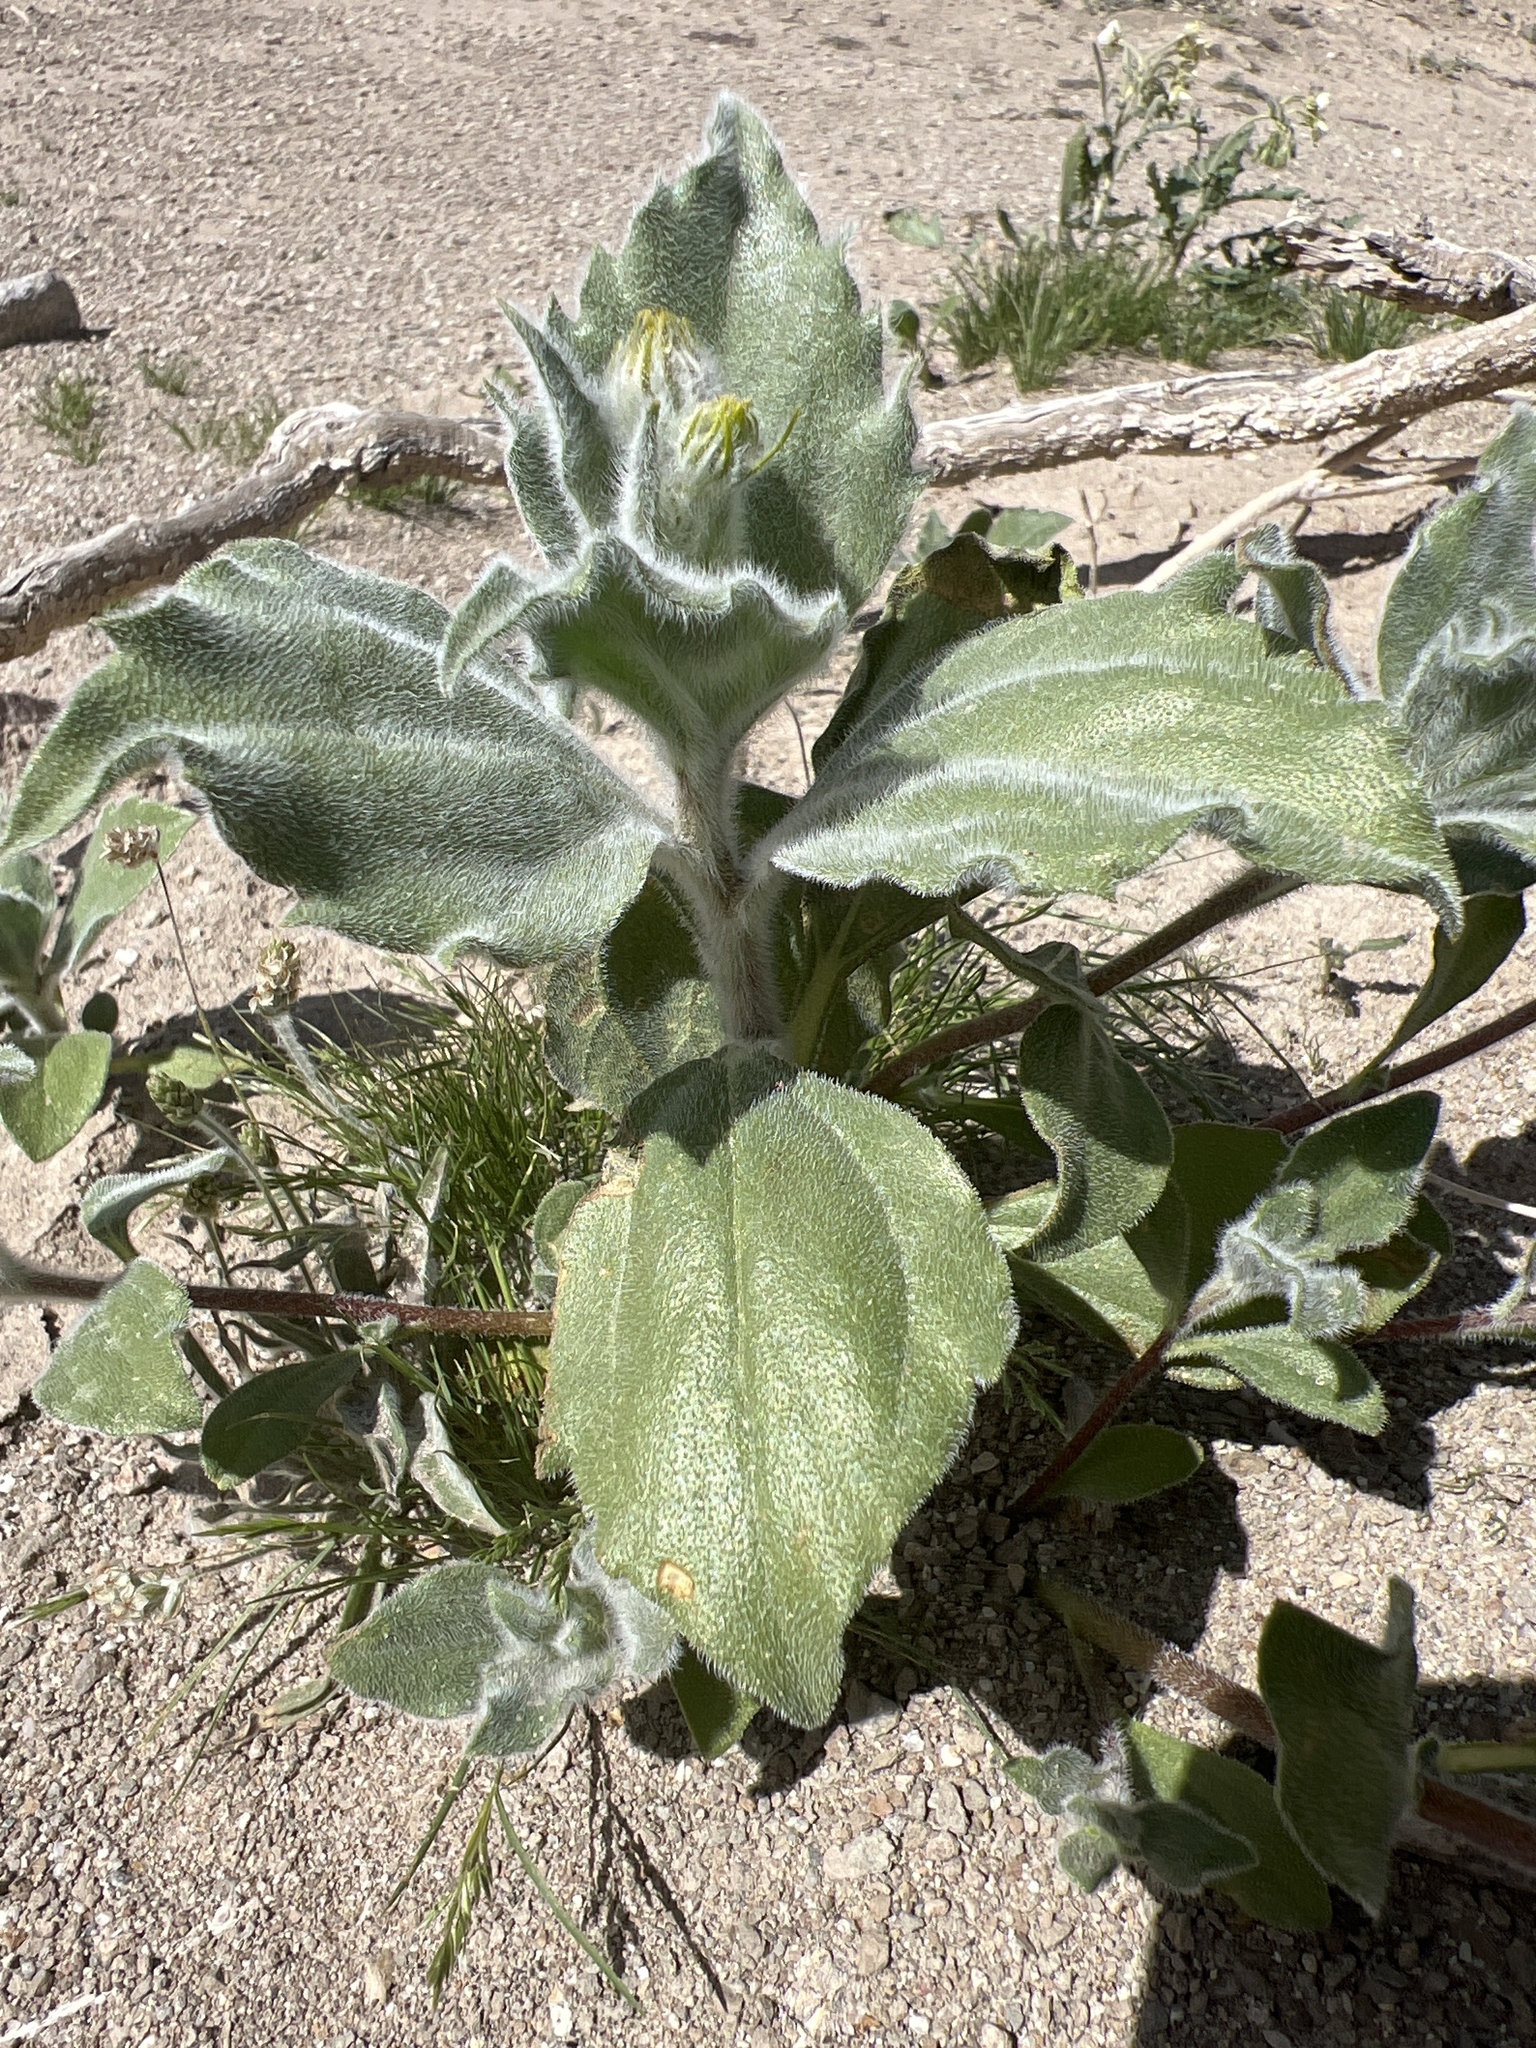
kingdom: Plantae
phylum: Tracheophyta
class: Magnoliopsida
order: Asterales
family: Asteraceae
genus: Geraea
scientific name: Geraea canescens
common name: Desert-gold
